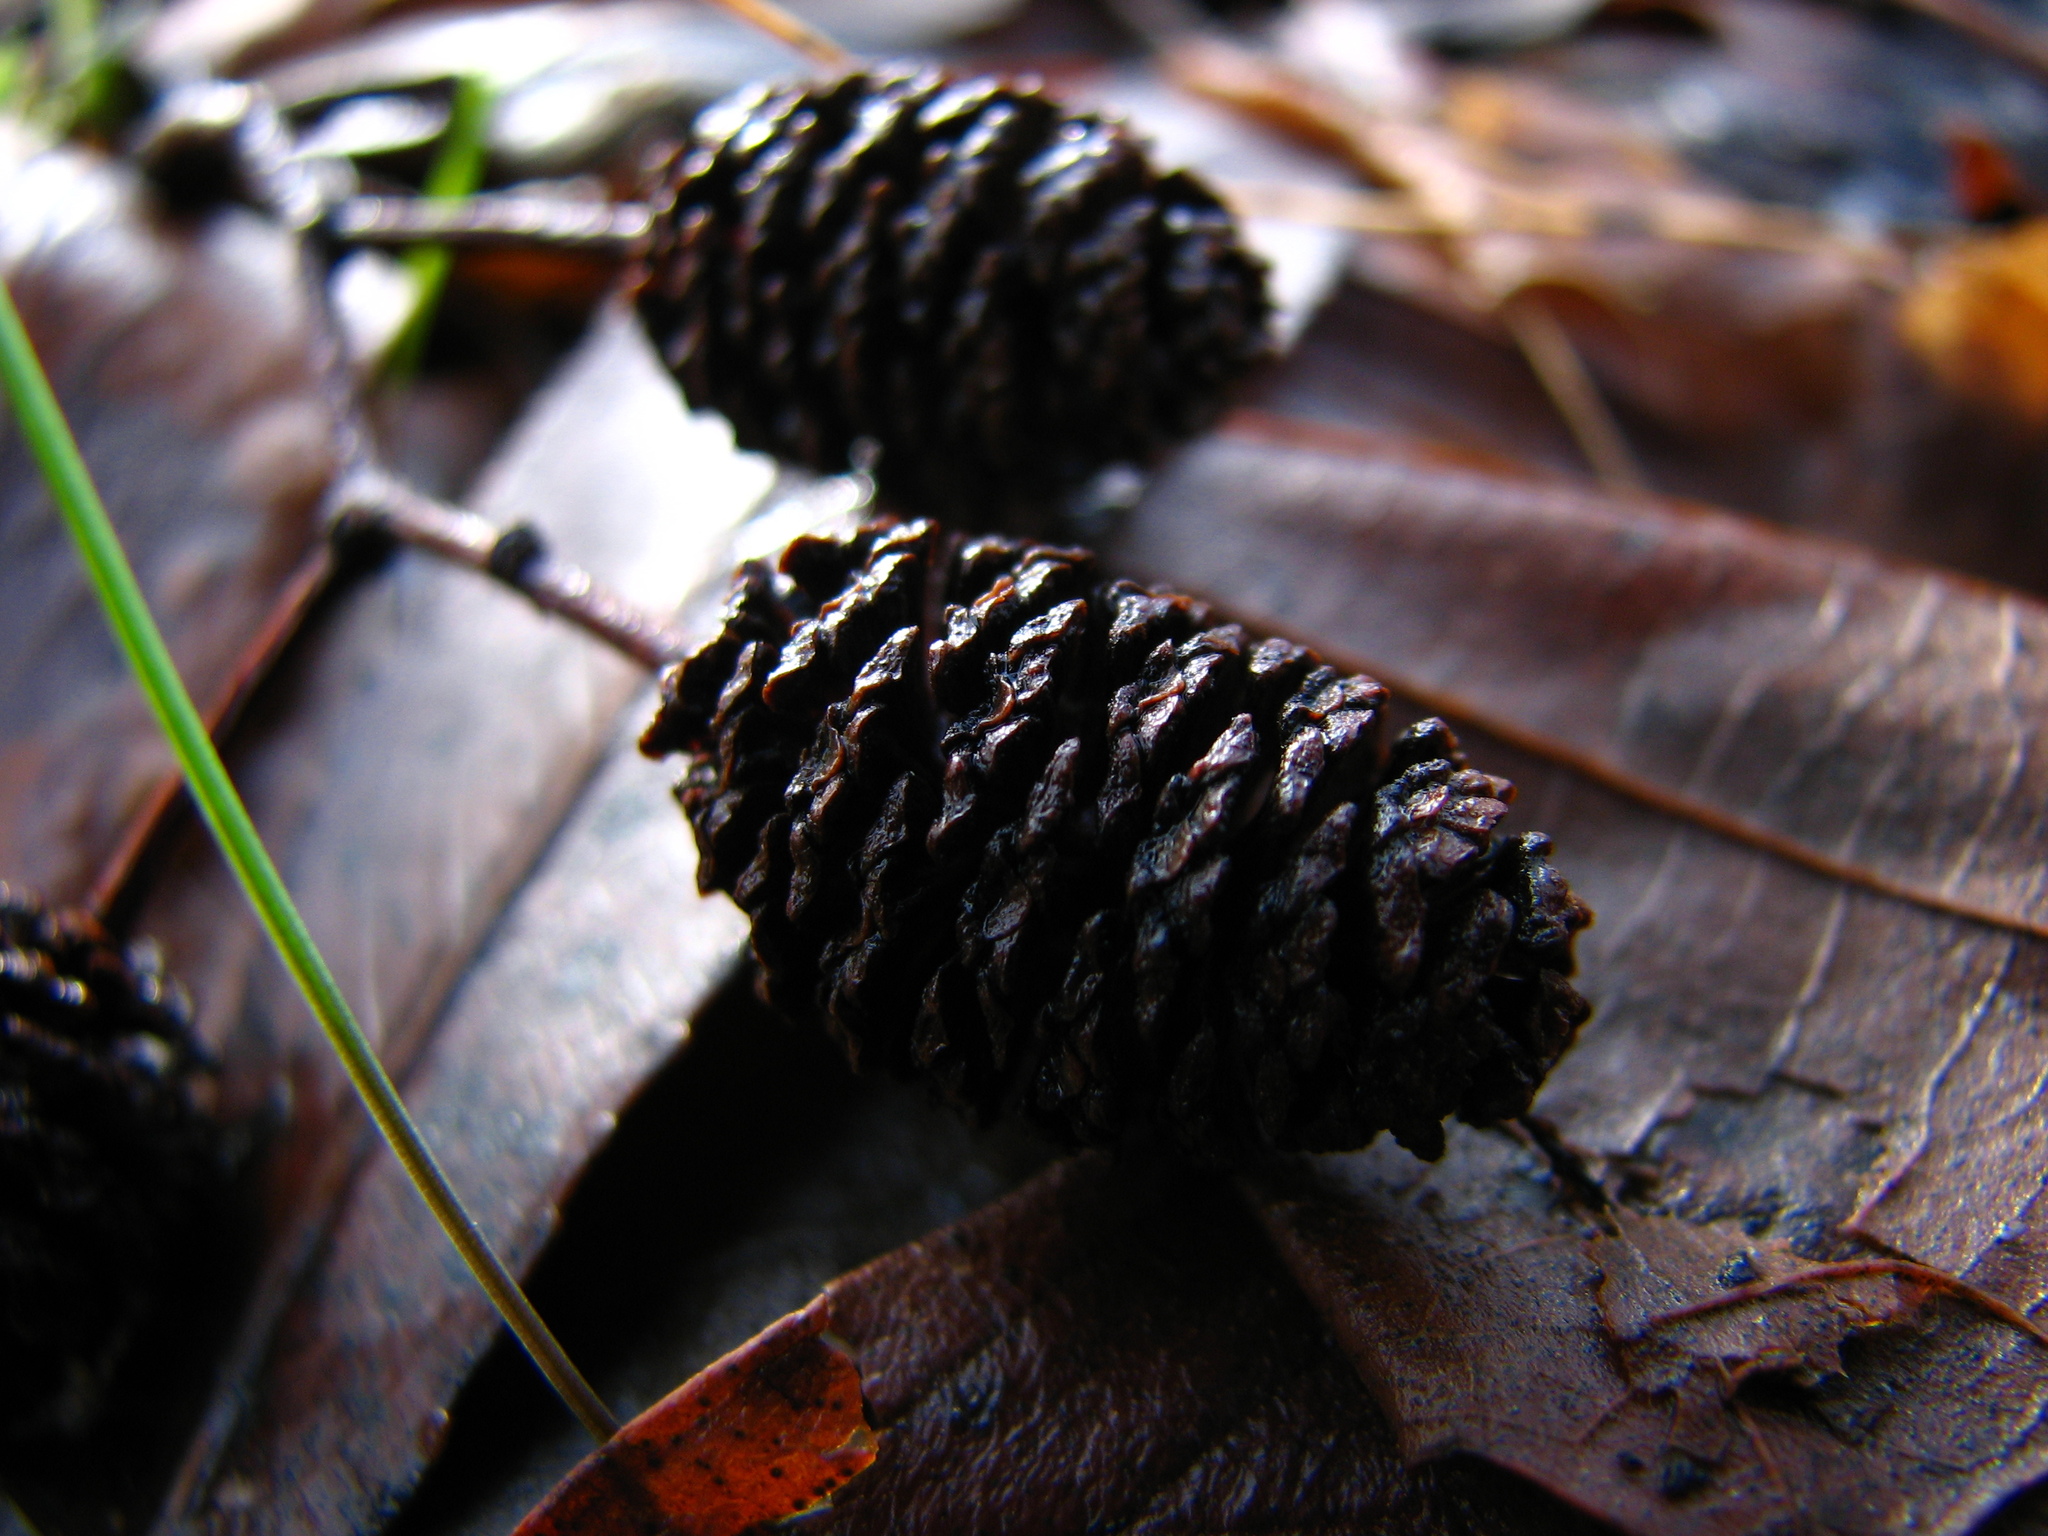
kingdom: Plantae
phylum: Tracheophyta
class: Magnoliopsida
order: Fagales
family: Betulaceae
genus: Alnus
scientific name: Alnus glutinosa
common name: Black alder
